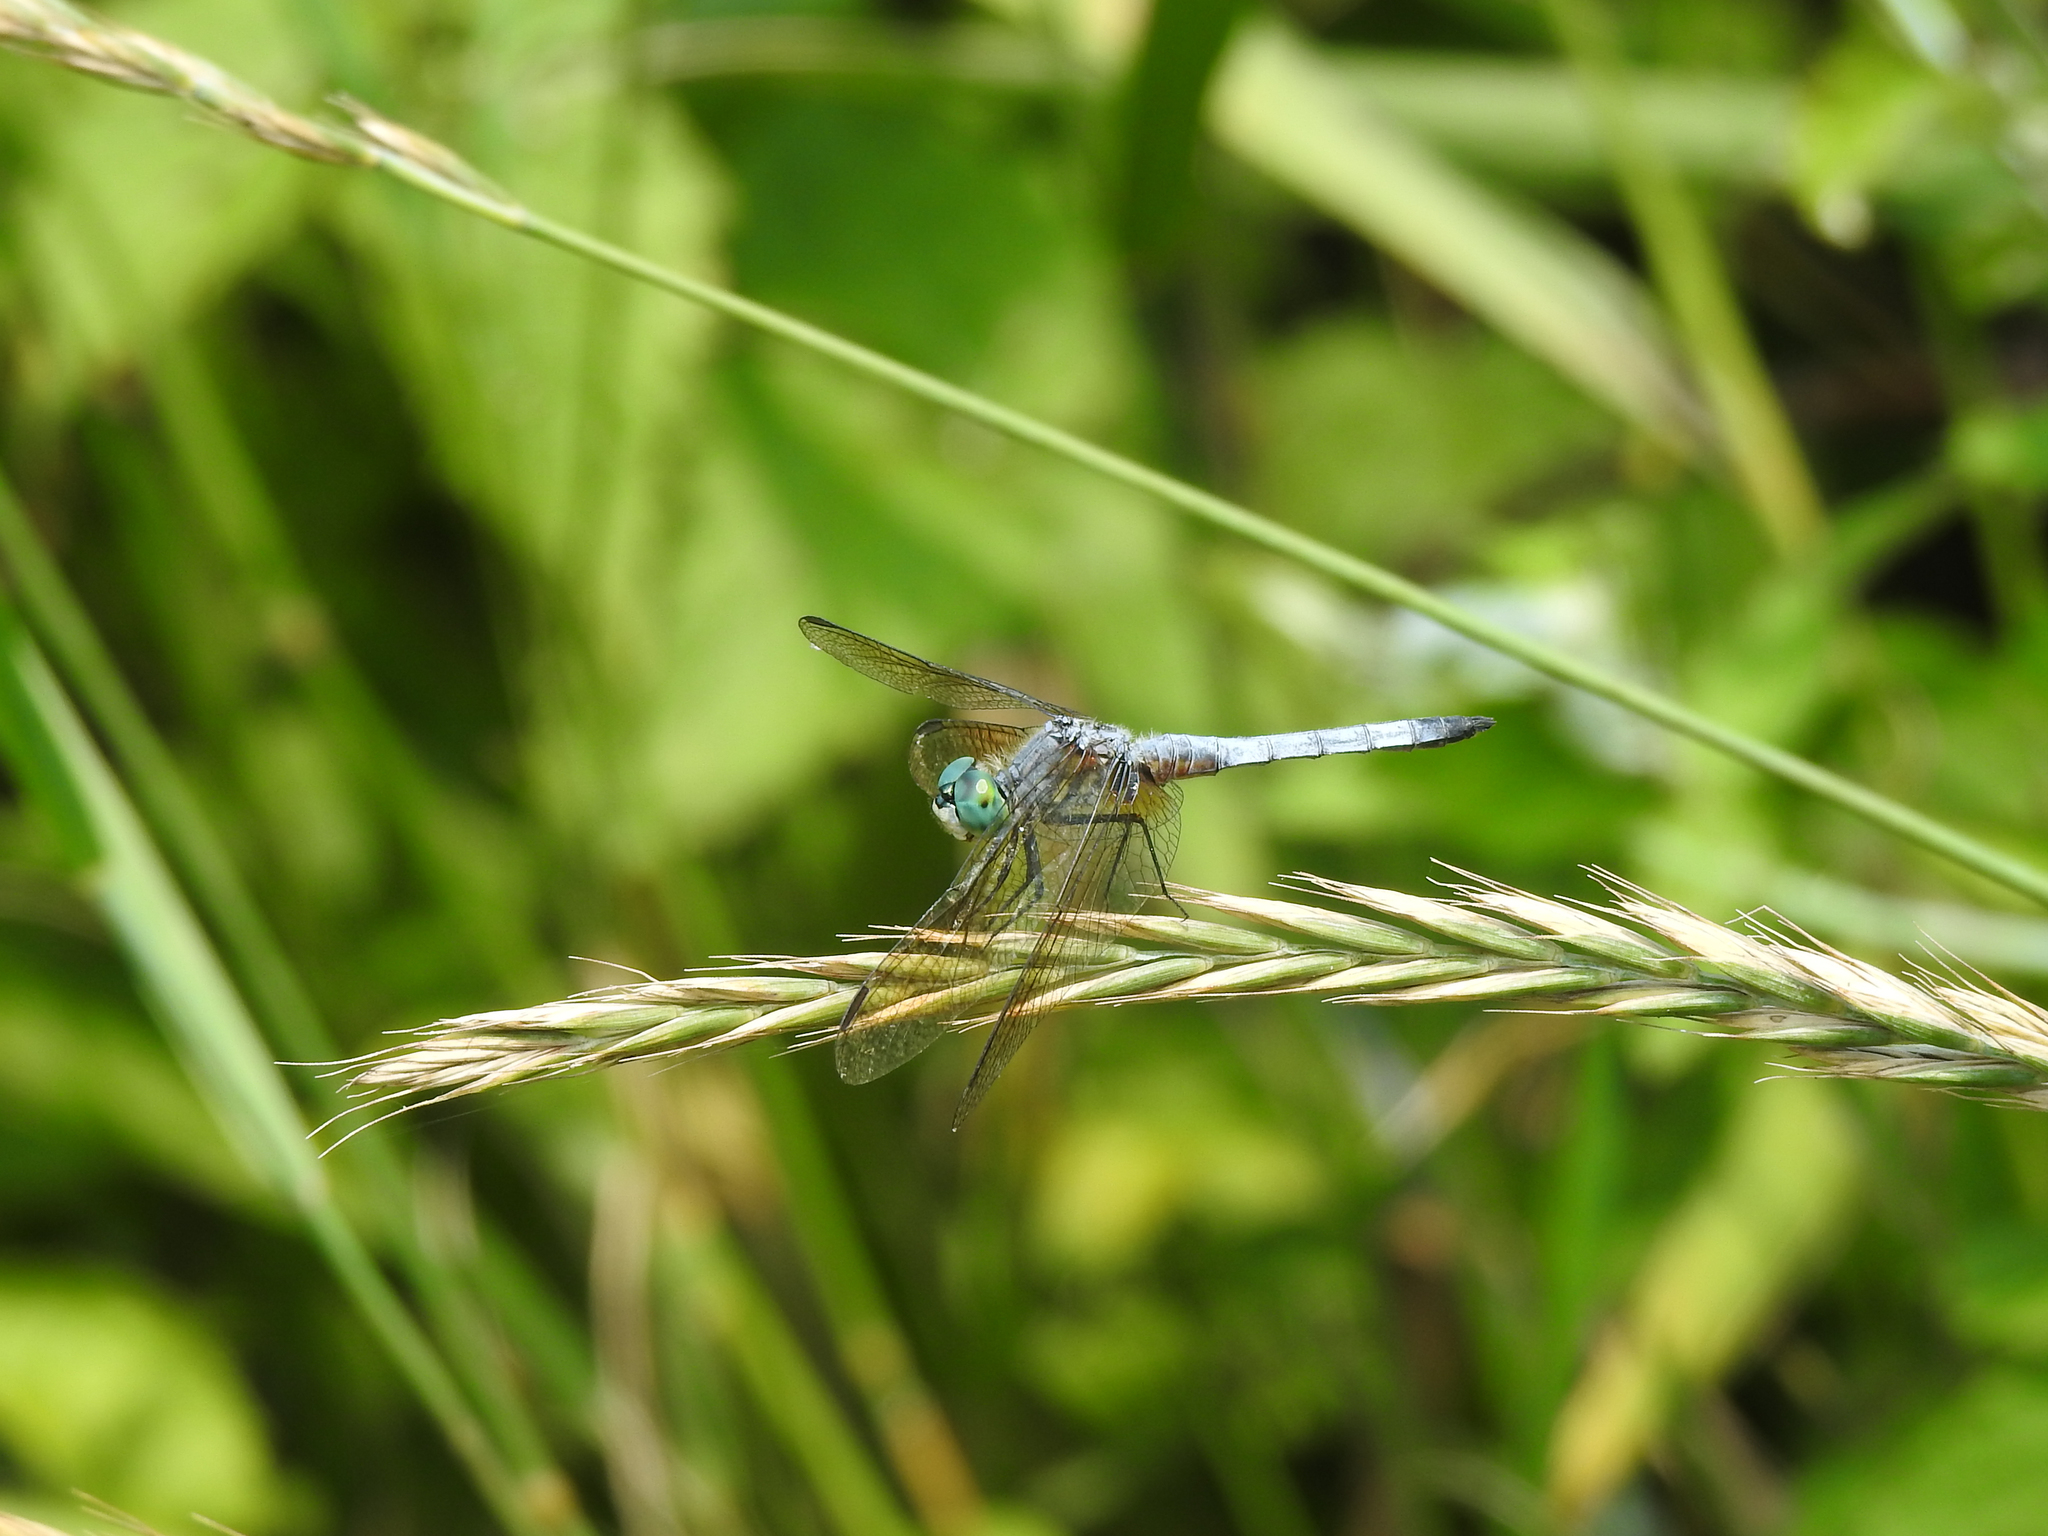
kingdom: Animalia
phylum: Arthropoda
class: Insecta
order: Odonata
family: Libellulidae
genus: Pachydiplax
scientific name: Pachydiplax longipennis
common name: Blue dasher
